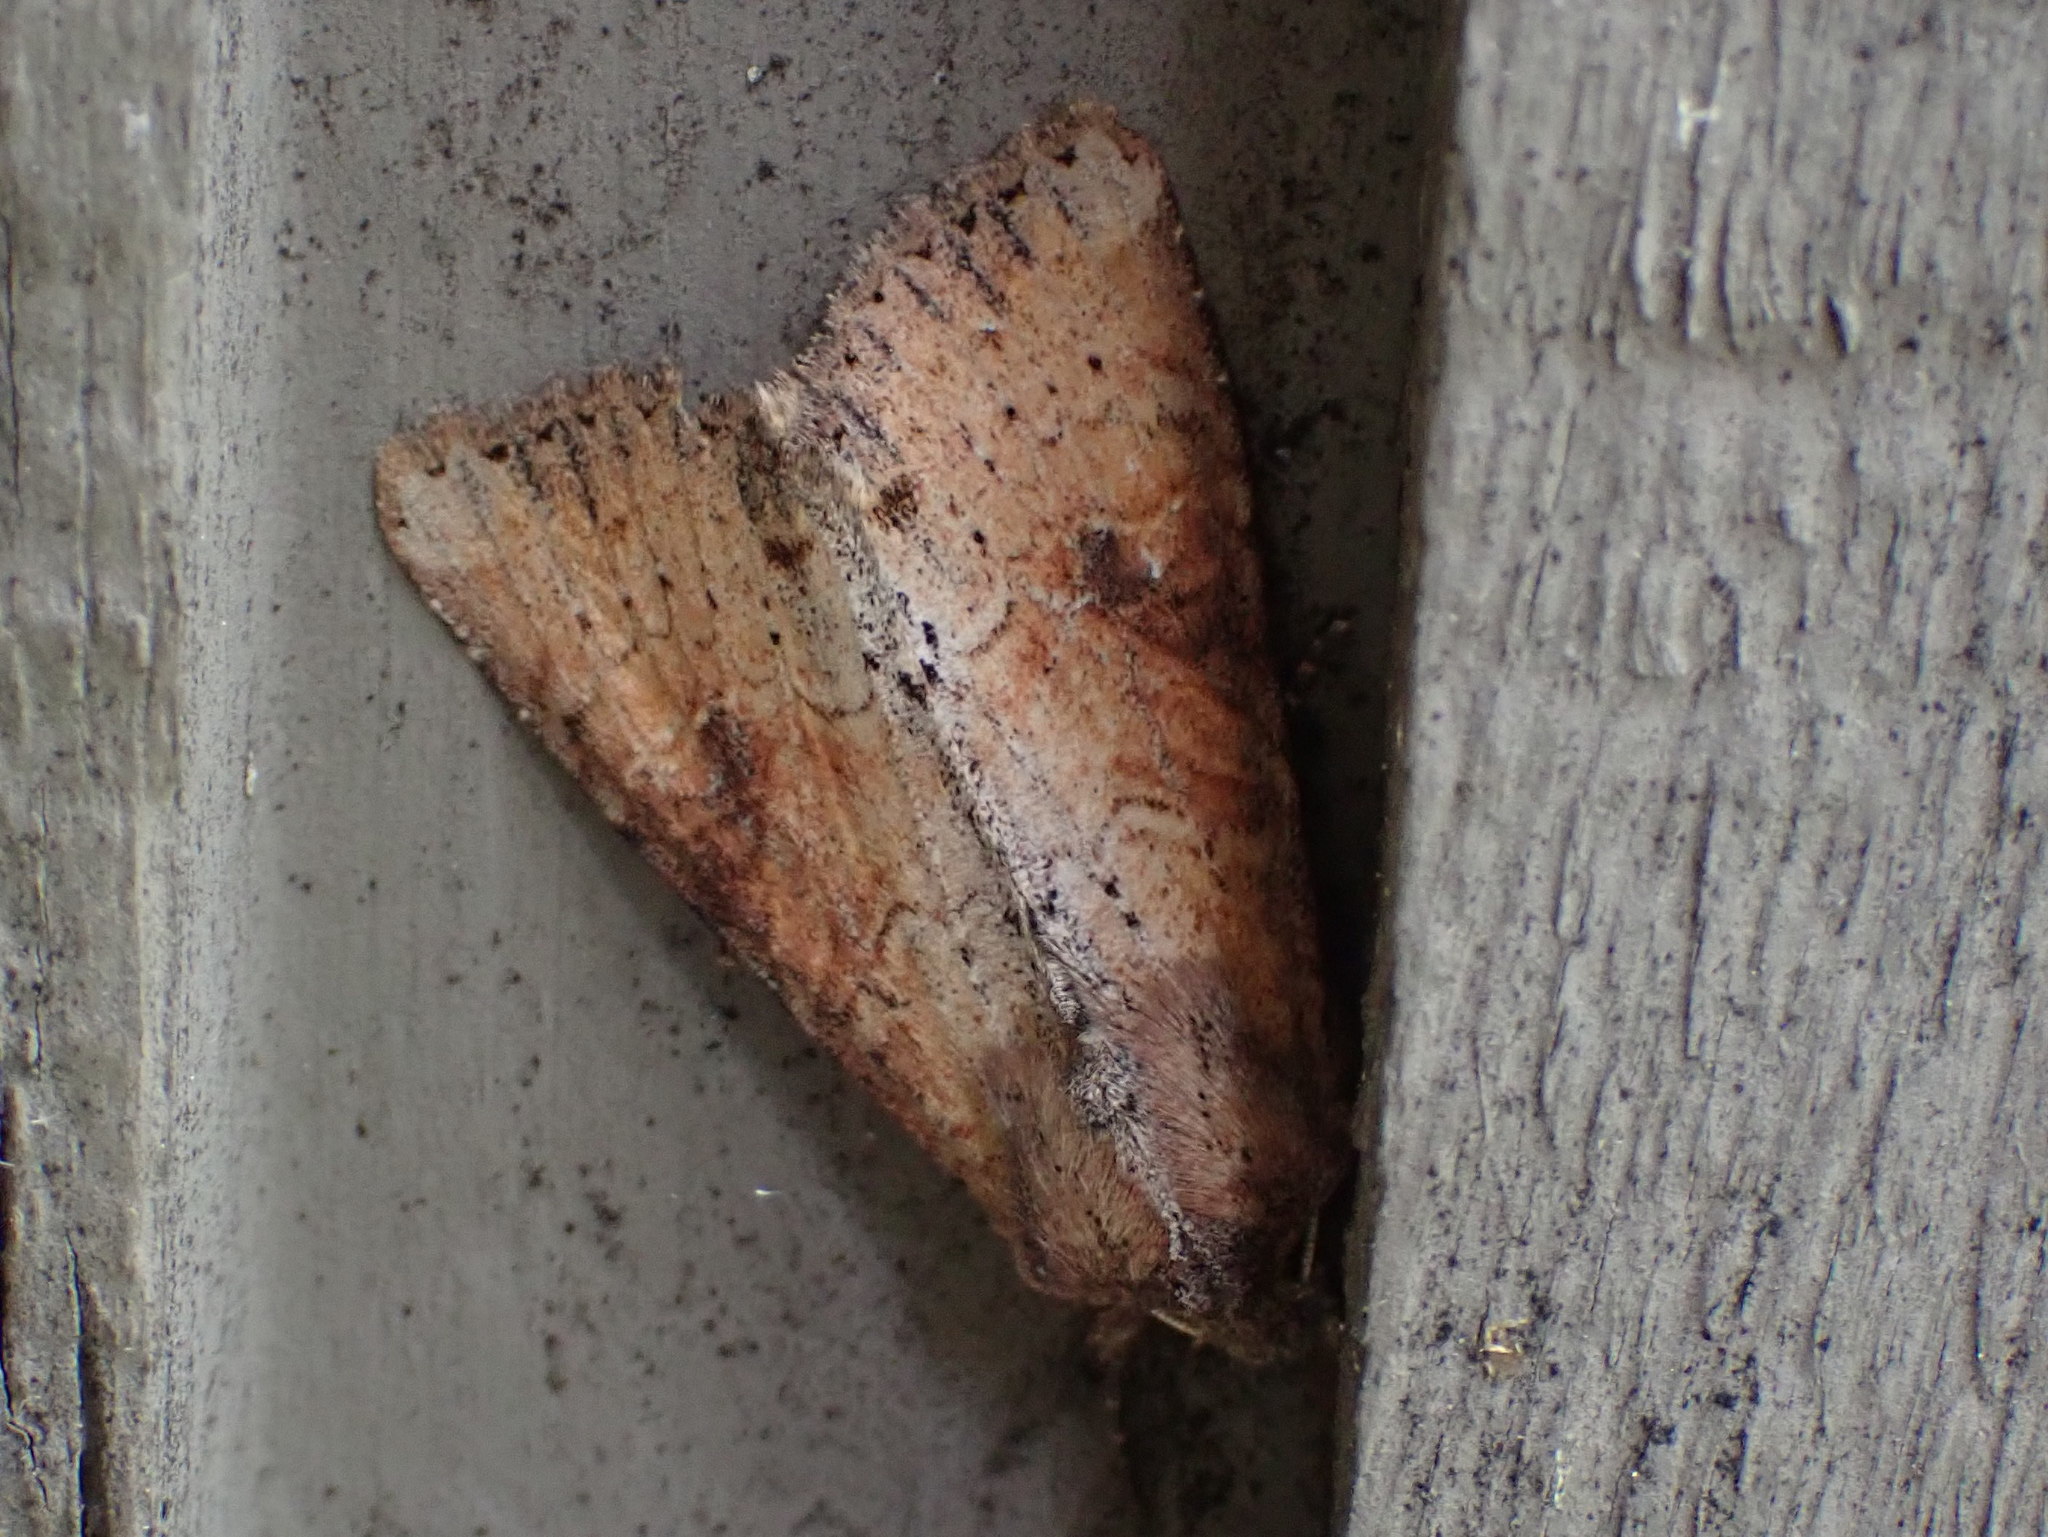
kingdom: Animalia
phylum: Arthropoda
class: Insecta
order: Lepidoptera
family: Noctuidae
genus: Apamea
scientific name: Apamea alia
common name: Fox apamea
